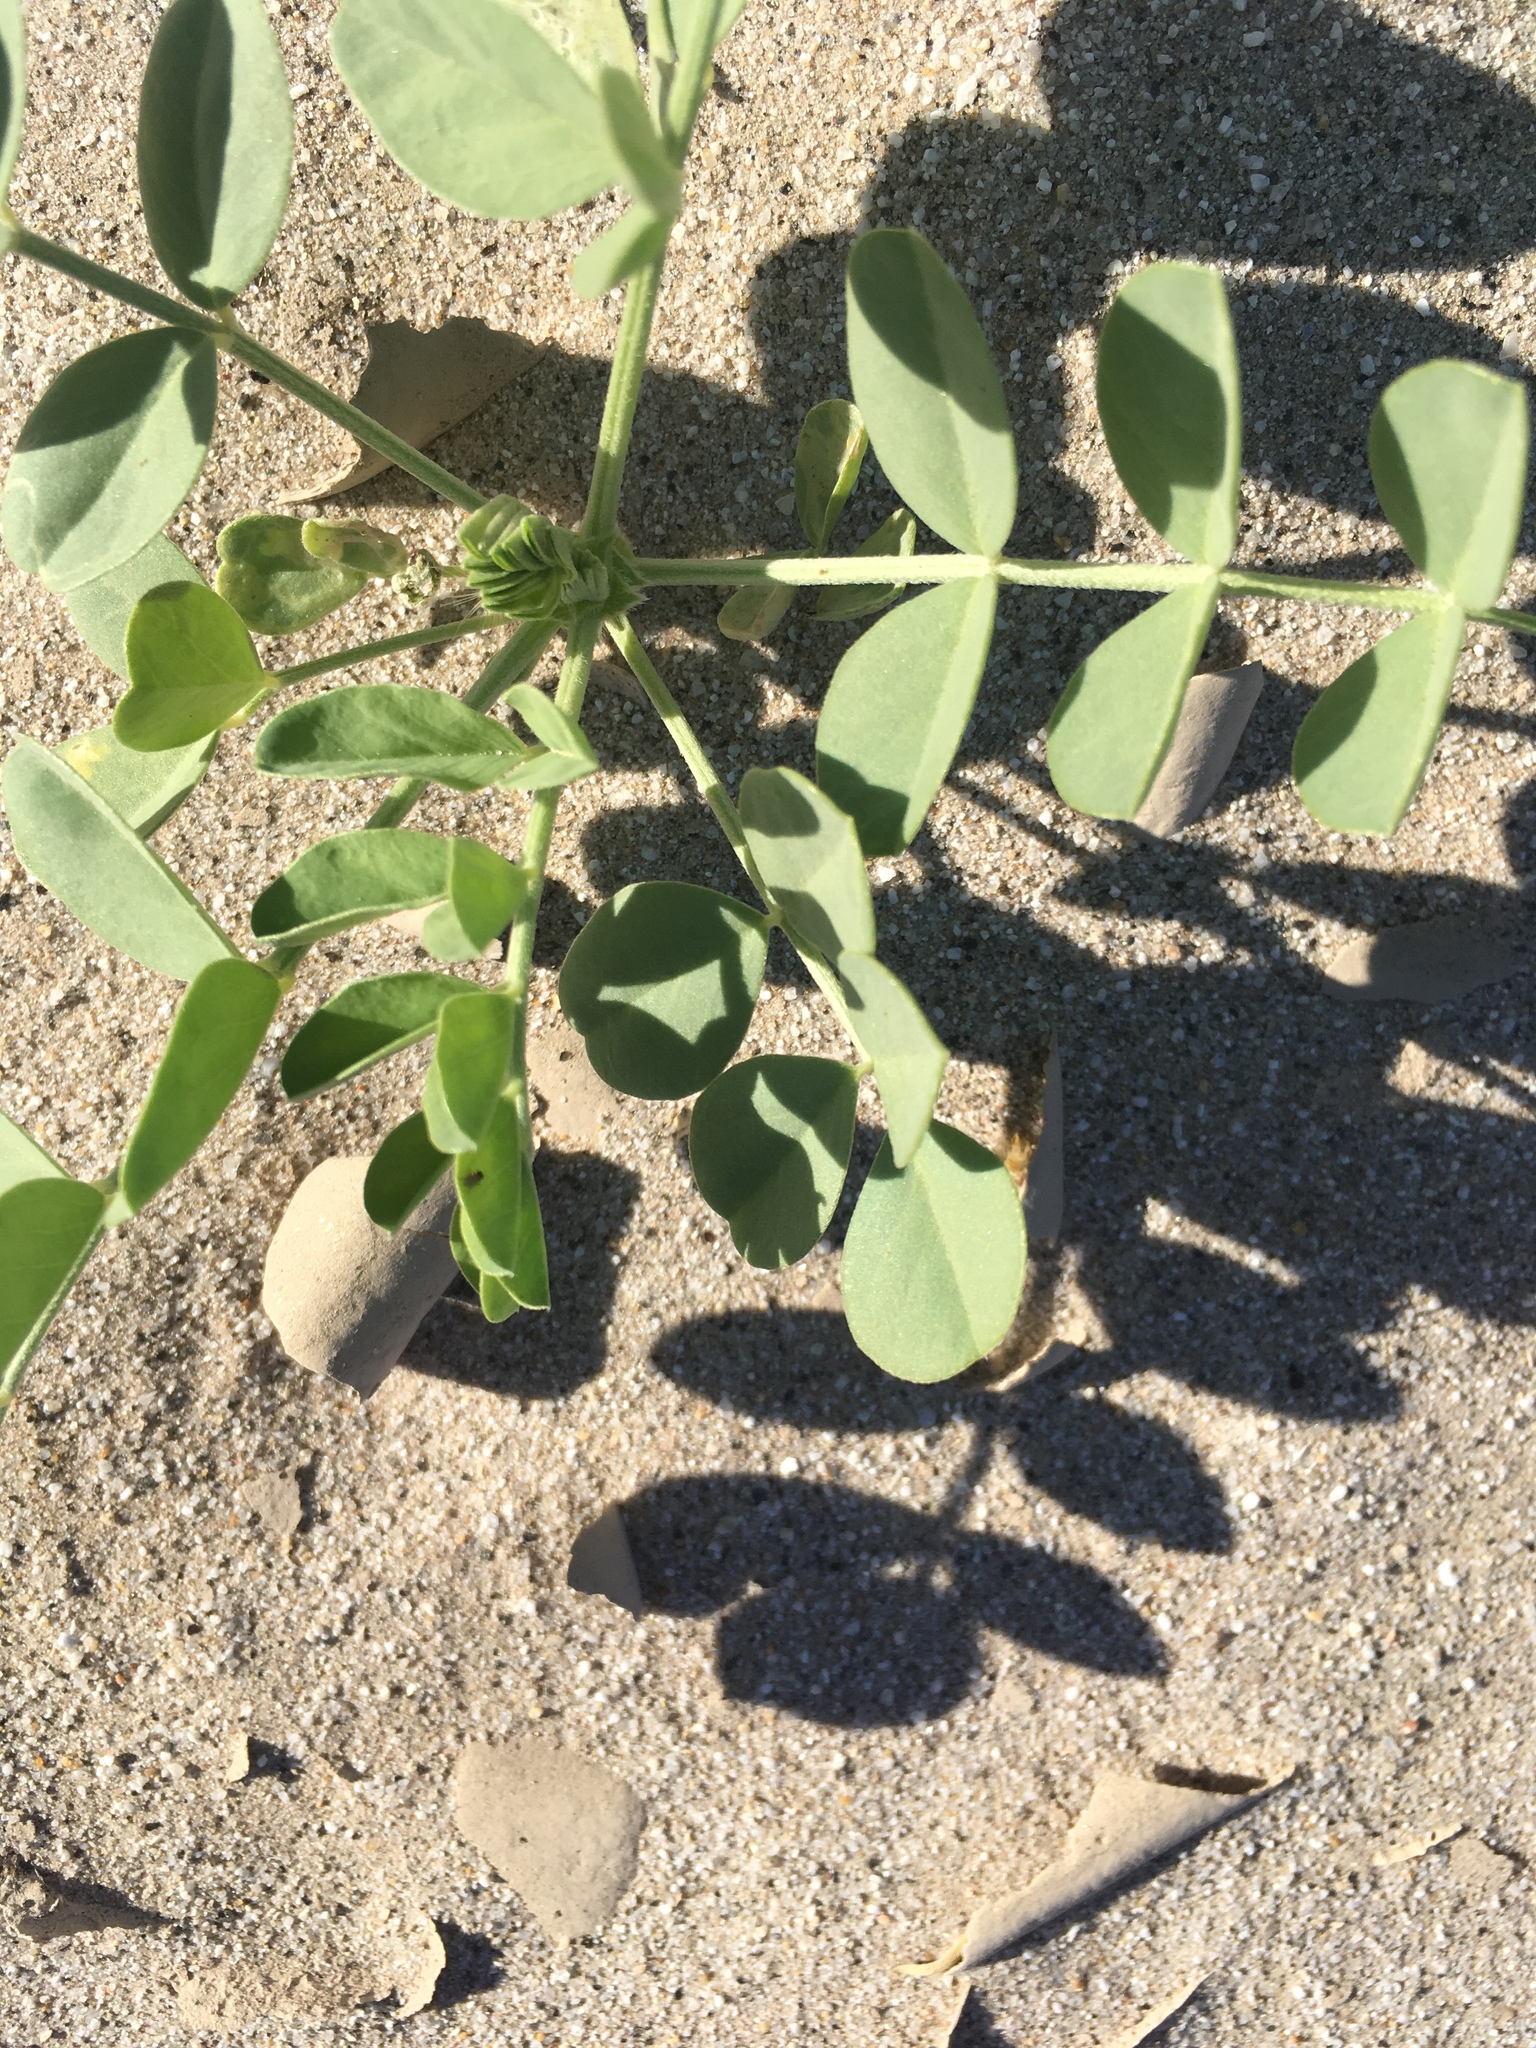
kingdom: Plantae
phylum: Tracheophyta
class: Magnoliopsida
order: Fabales
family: Fabaceae
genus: Astragalus
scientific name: Astragalus crotalariae
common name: Salton milkvetch
